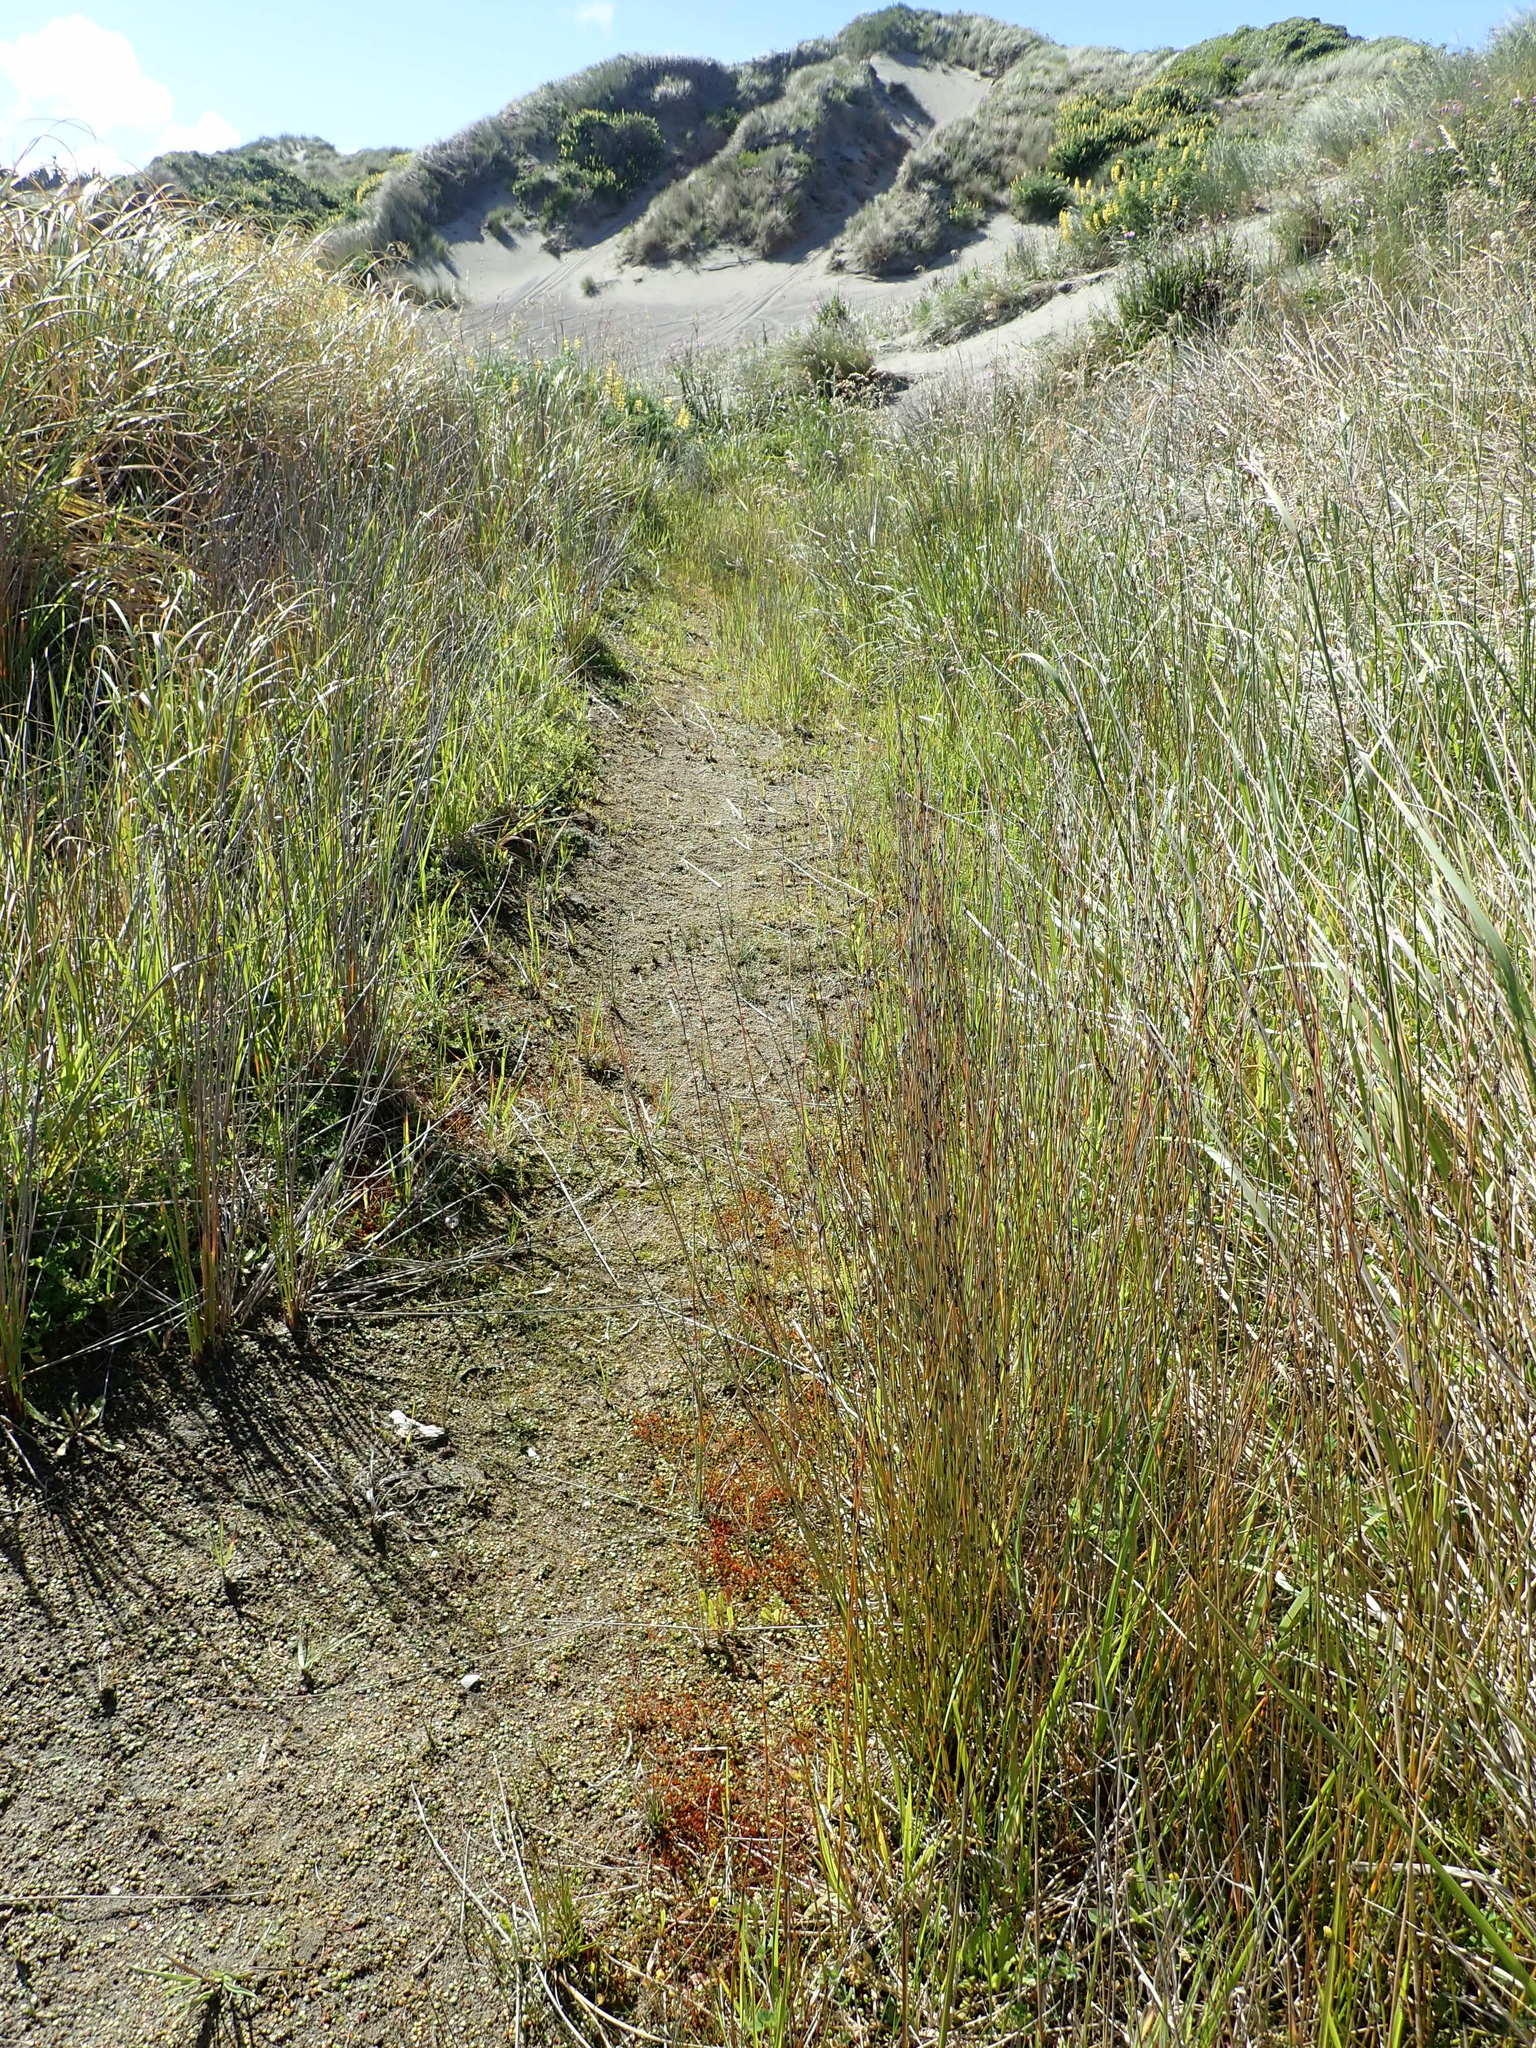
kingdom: Plantae
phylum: Tracheophyta
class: Liliopsida
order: Poales
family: Restionaceae
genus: Apodasmia
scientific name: Apodasmia similis
